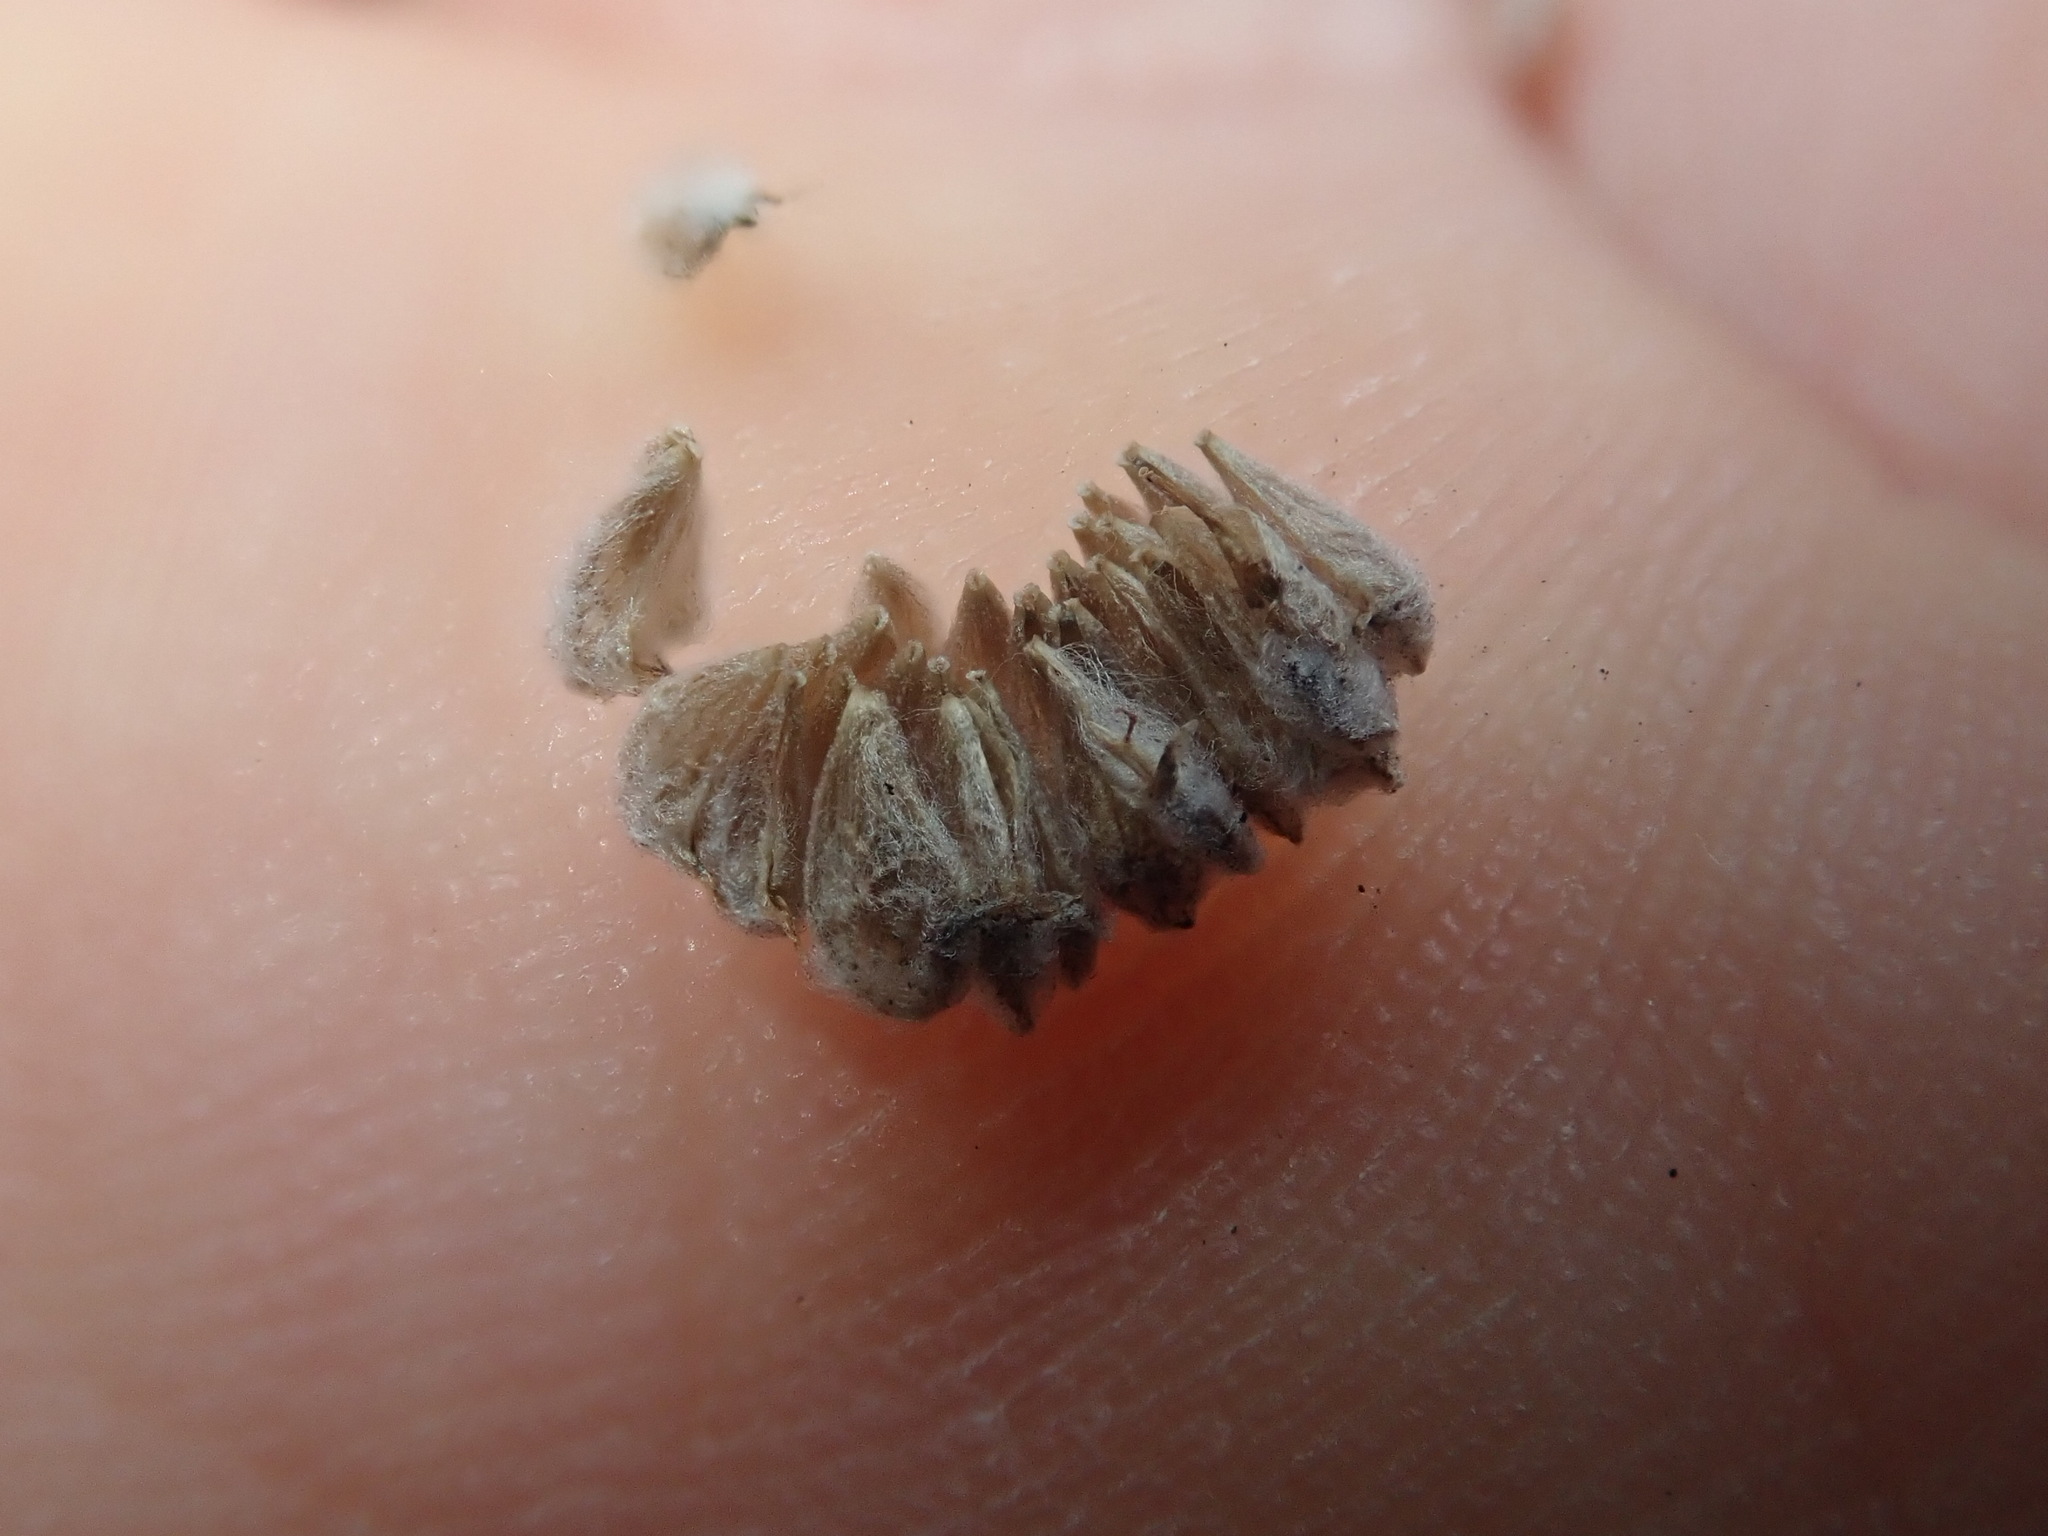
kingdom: Plantae
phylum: Tracheophyta
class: Magnoliopsida
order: Asterales
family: Asteraceae
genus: Psilocarphus
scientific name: Psilocarphus elatior
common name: Meadow woollyheads
